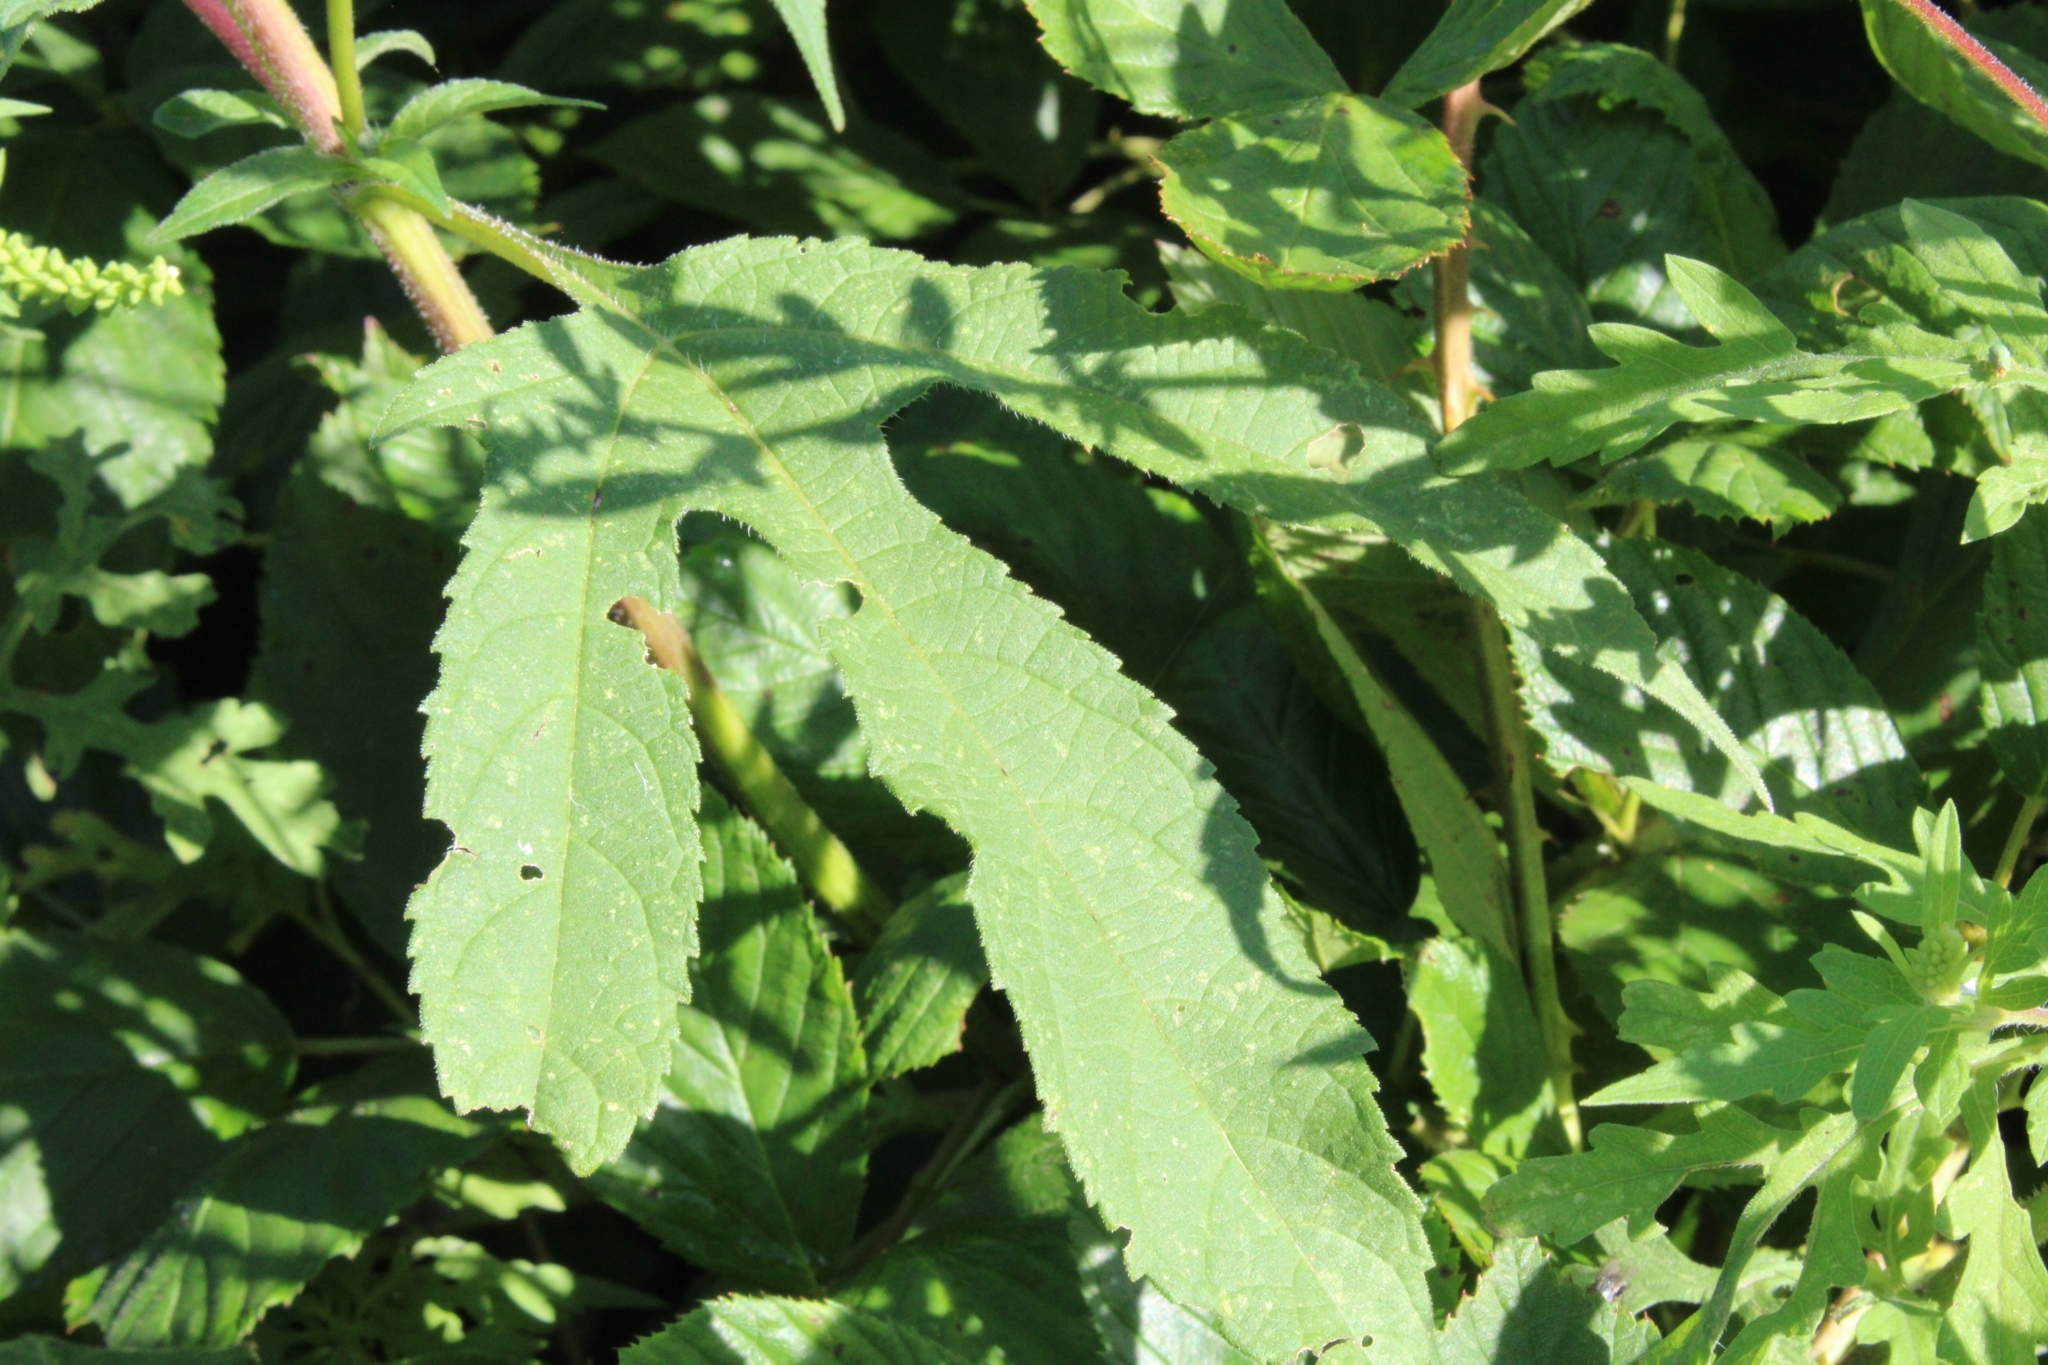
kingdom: Plantae
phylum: Tracheophyta
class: Magnoliopsida
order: Asterales
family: Asteraceae
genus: Ambrosia
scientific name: Ambrosia trifida
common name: Giant ragweed
